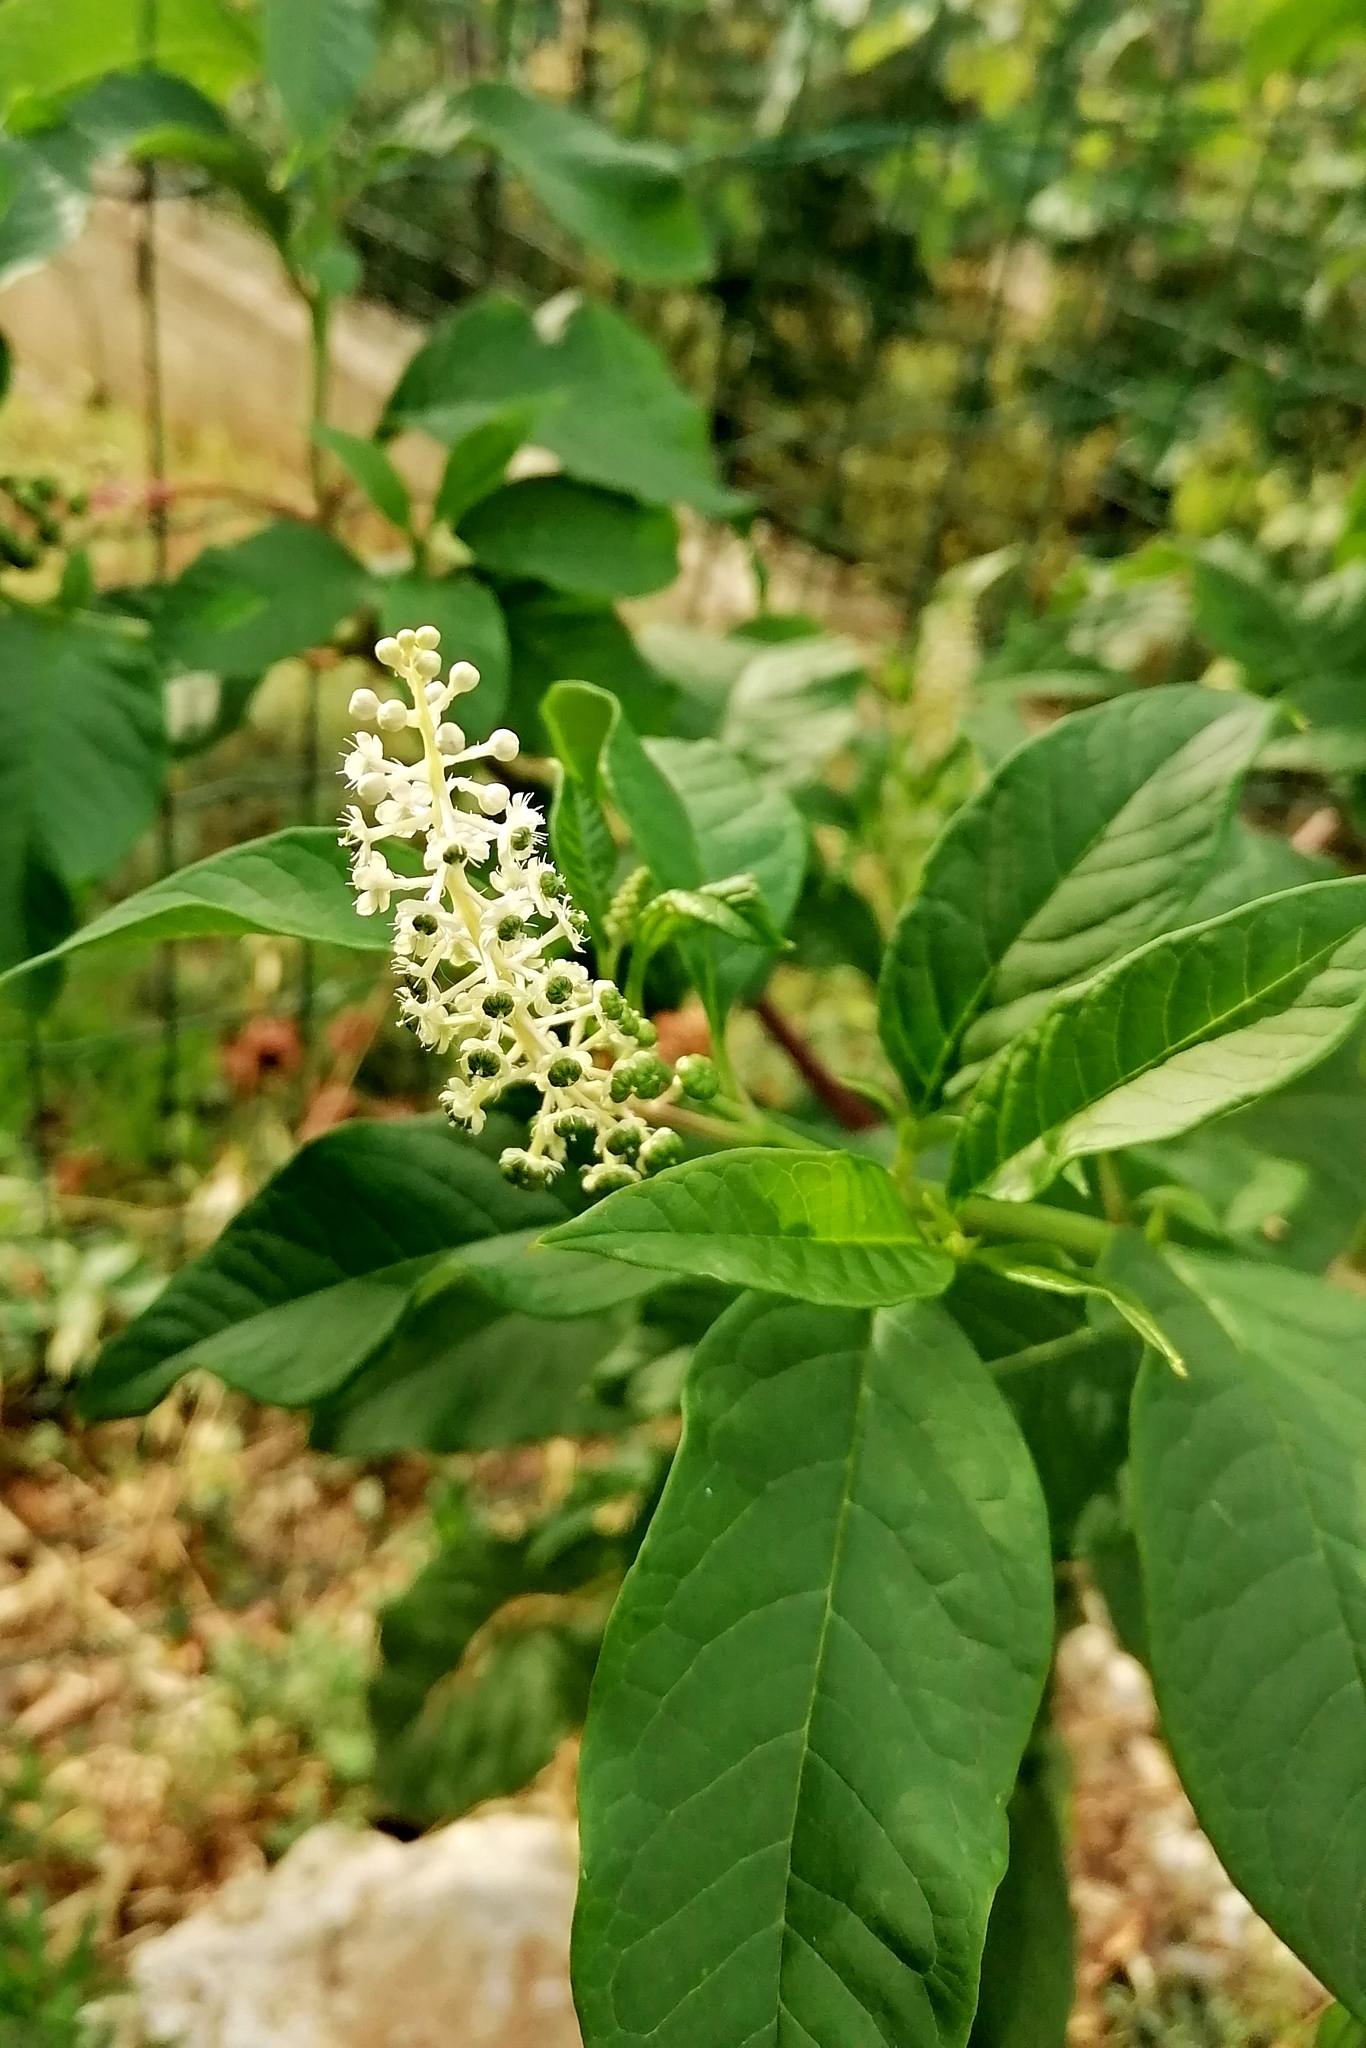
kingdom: Plantae
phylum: Tracheophyta
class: Magnoliopsida
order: Caryophyllales
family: Phytolaccaceae
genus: Phytolacca
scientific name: Phytolacca americana
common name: American pokeweed
